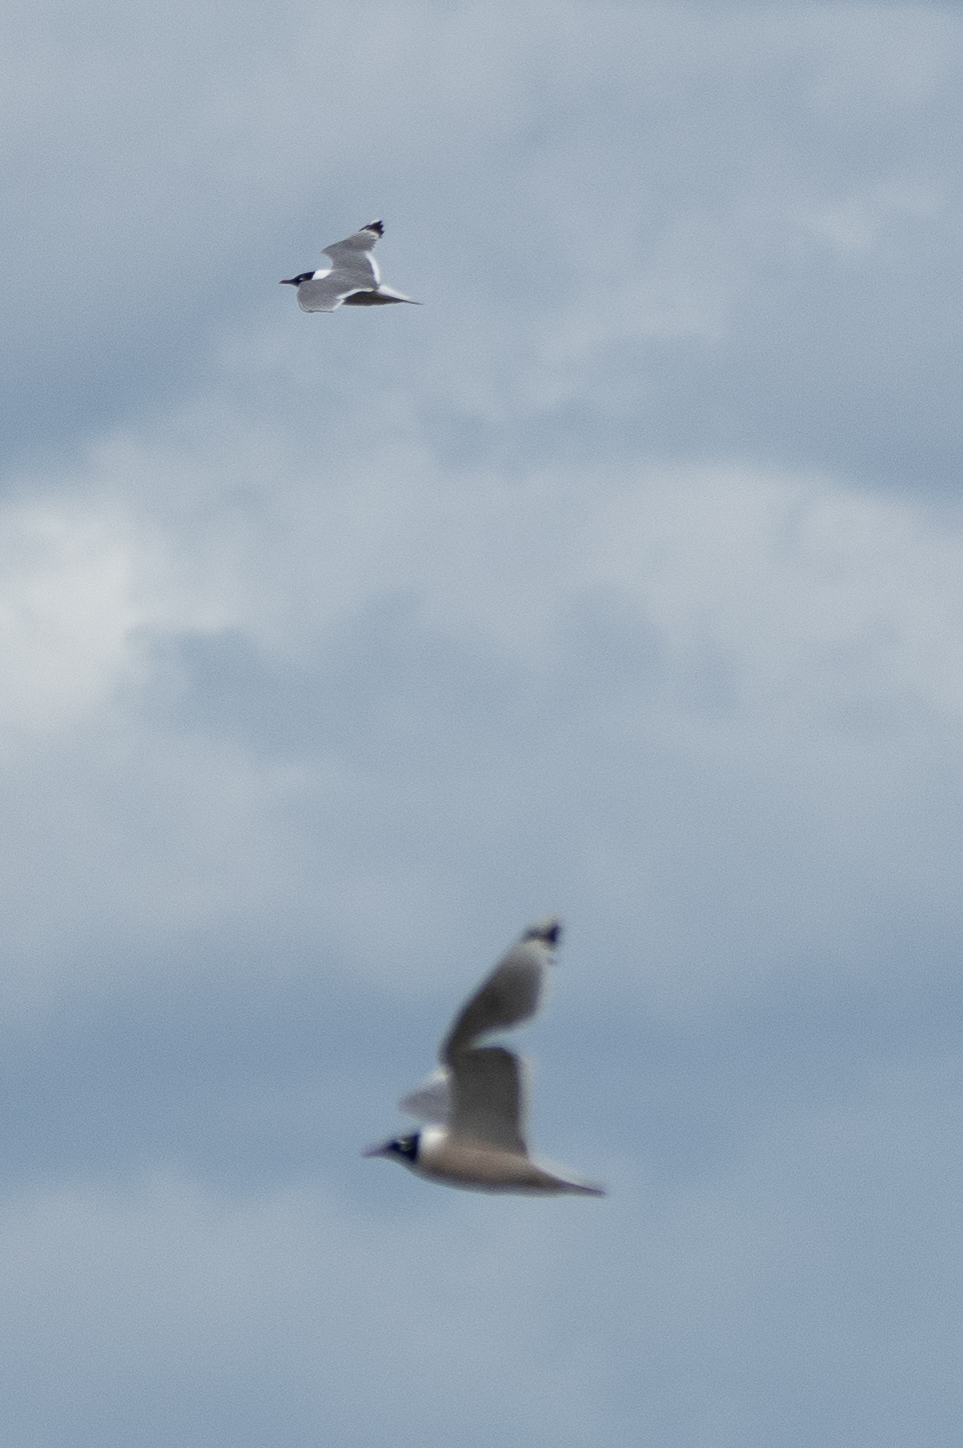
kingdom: Animalia
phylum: Chordata
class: Aves
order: Charadriiformes
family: Laridae
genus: Leucophaeus
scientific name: Leucophaeus pipixcan
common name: Franklin's gull
